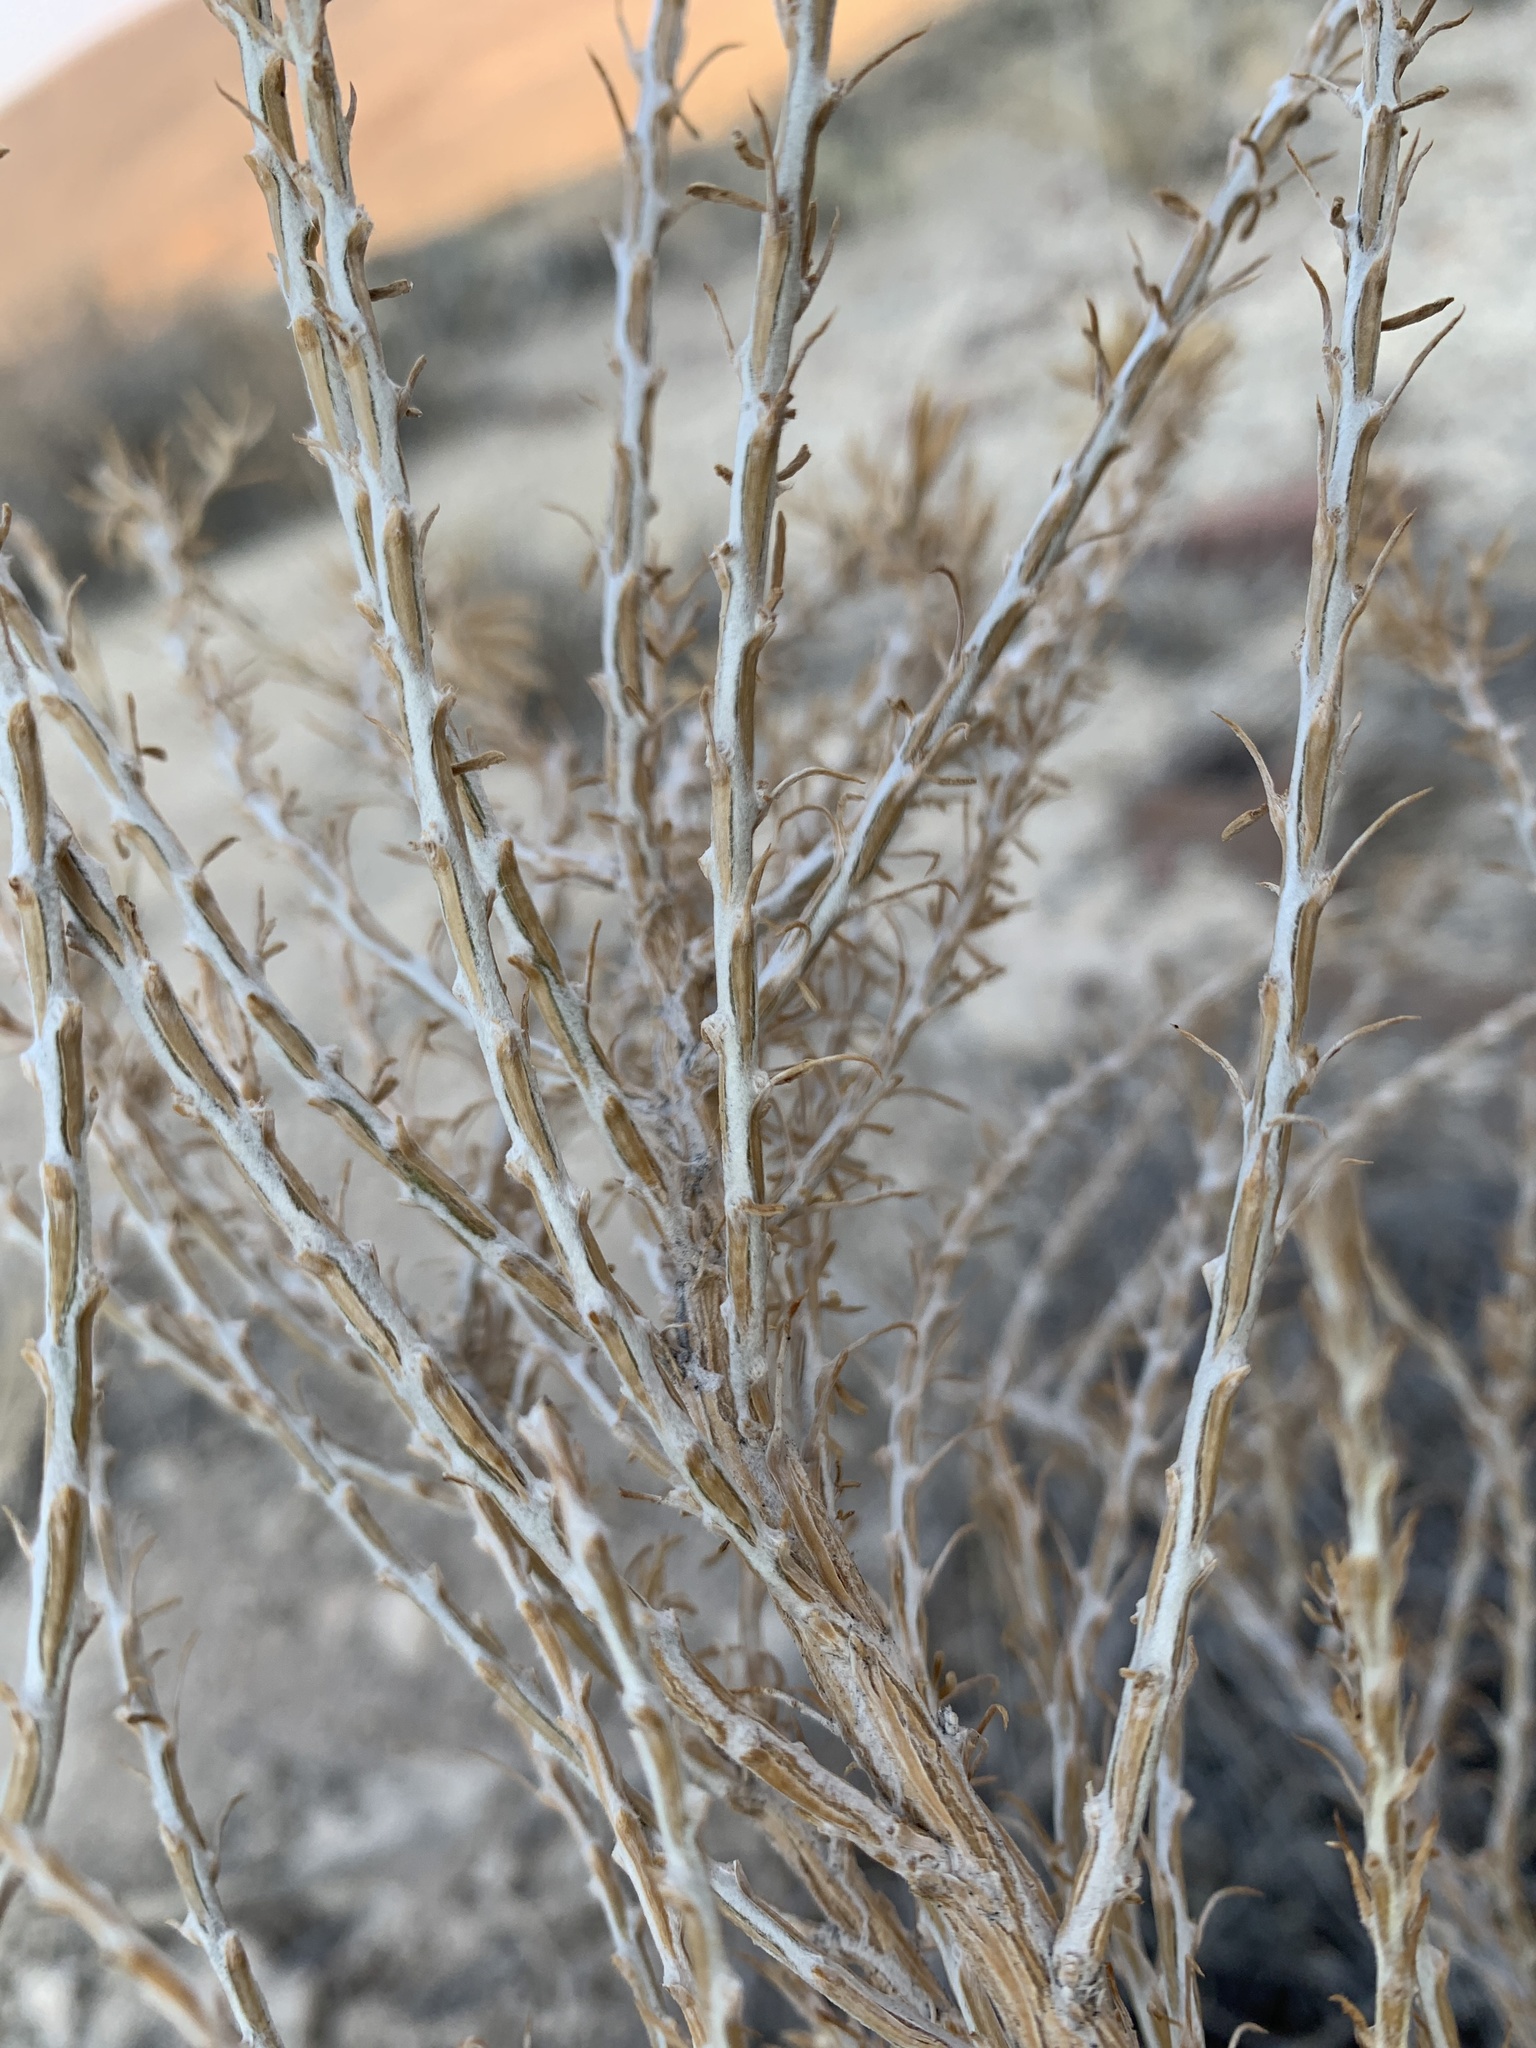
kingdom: Plantae
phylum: Tracheophyta
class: Magnoliopsida
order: Asterales
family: Asteraceae
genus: Tetradymia
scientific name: Tetradymia glabrata
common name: Smooth tetradymia
